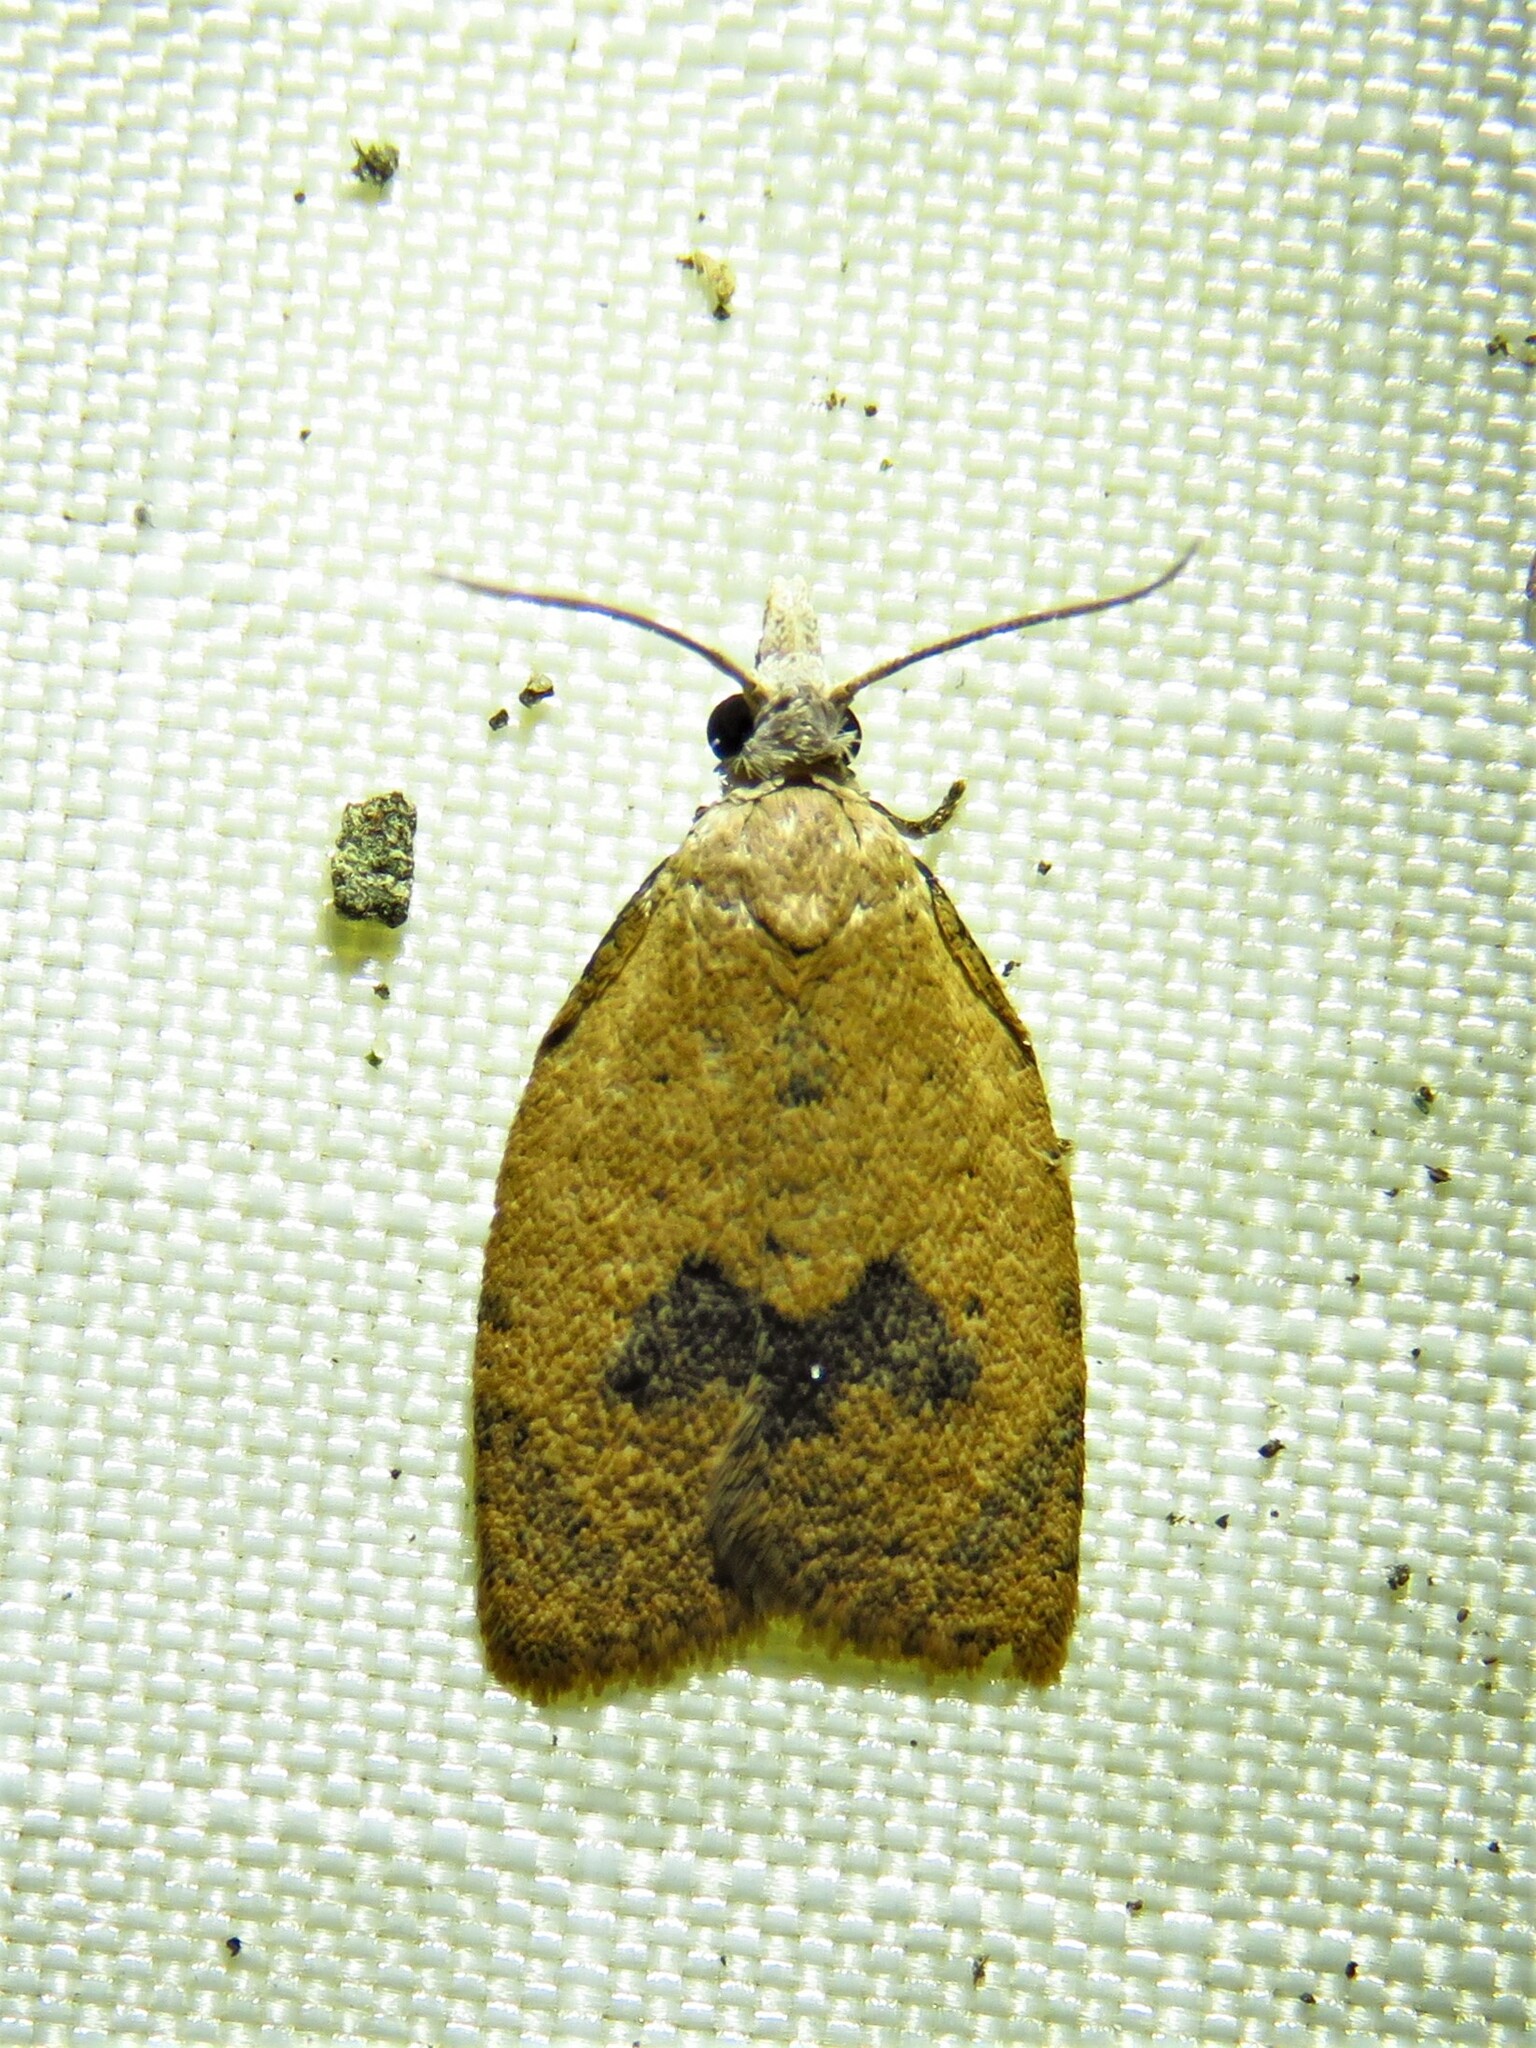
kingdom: Animalia
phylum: Arthropoda
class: Insecta
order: Lepidoptera
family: Tortricidae
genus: Sparganothoides
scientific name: Sparganothoides lentiginosana
